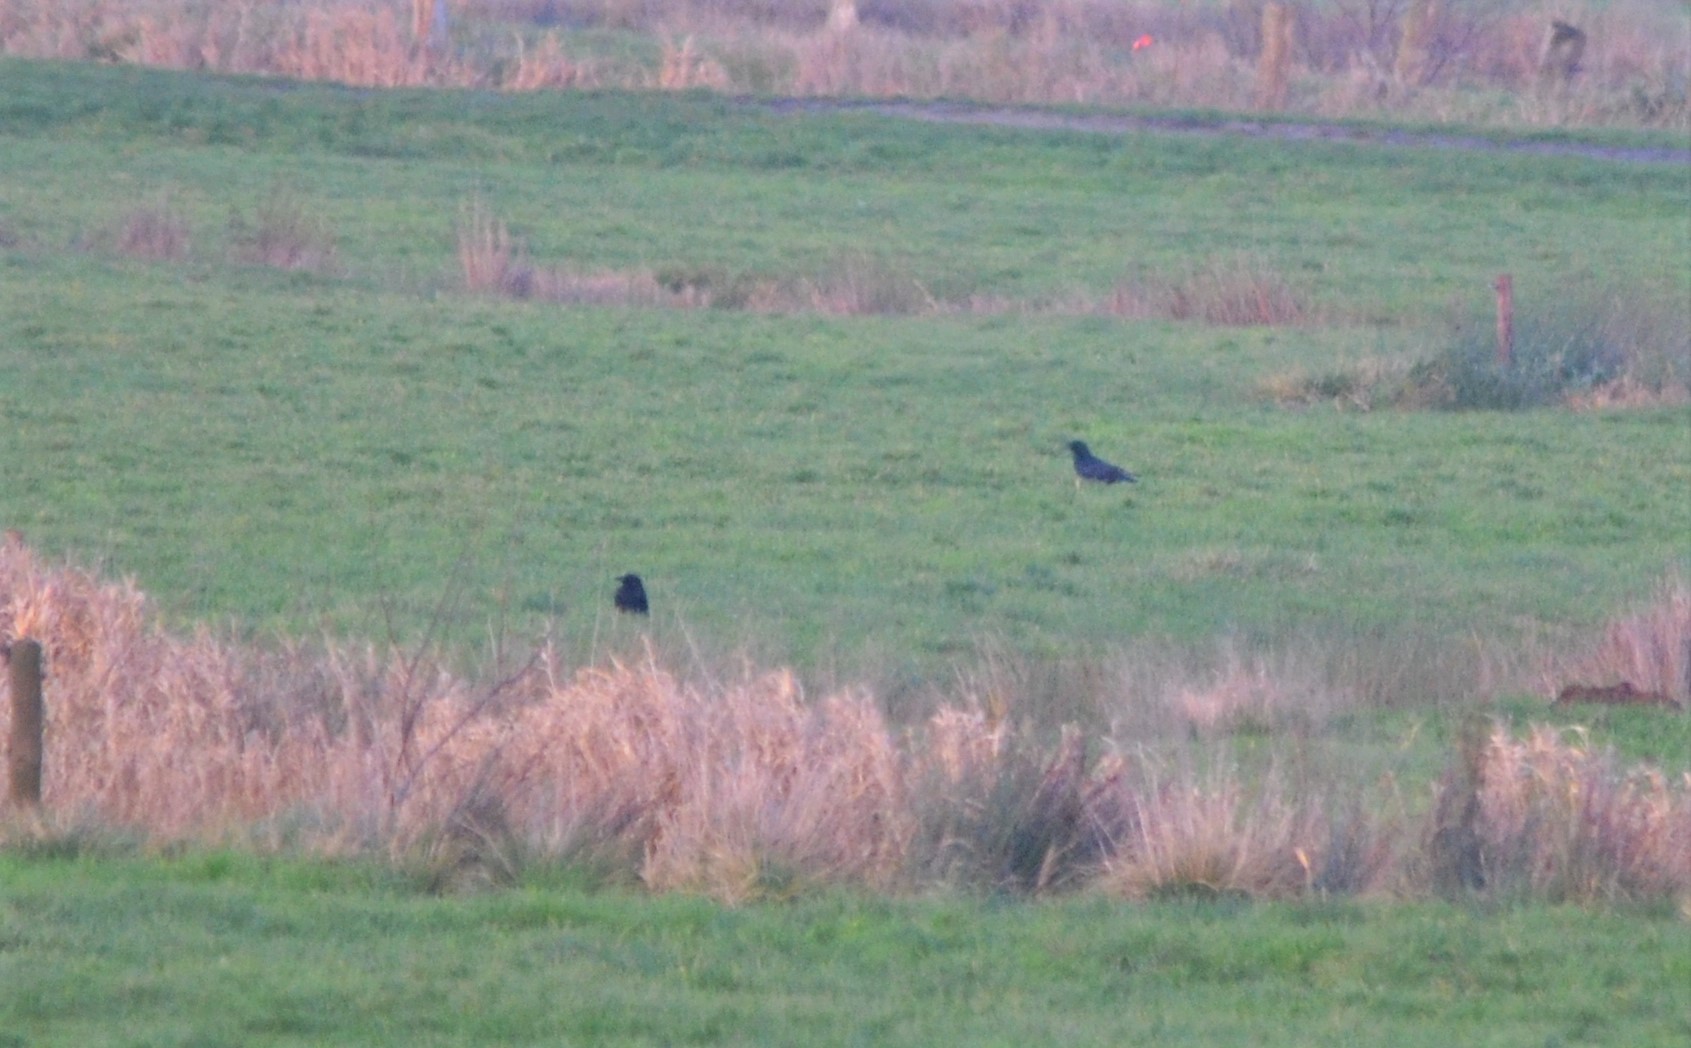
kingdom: Animalia
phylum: Chordata
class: Aves
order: Passeriformes
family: Corvidae
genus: Corvus
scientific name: Corvus corone
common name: Carrion crow
